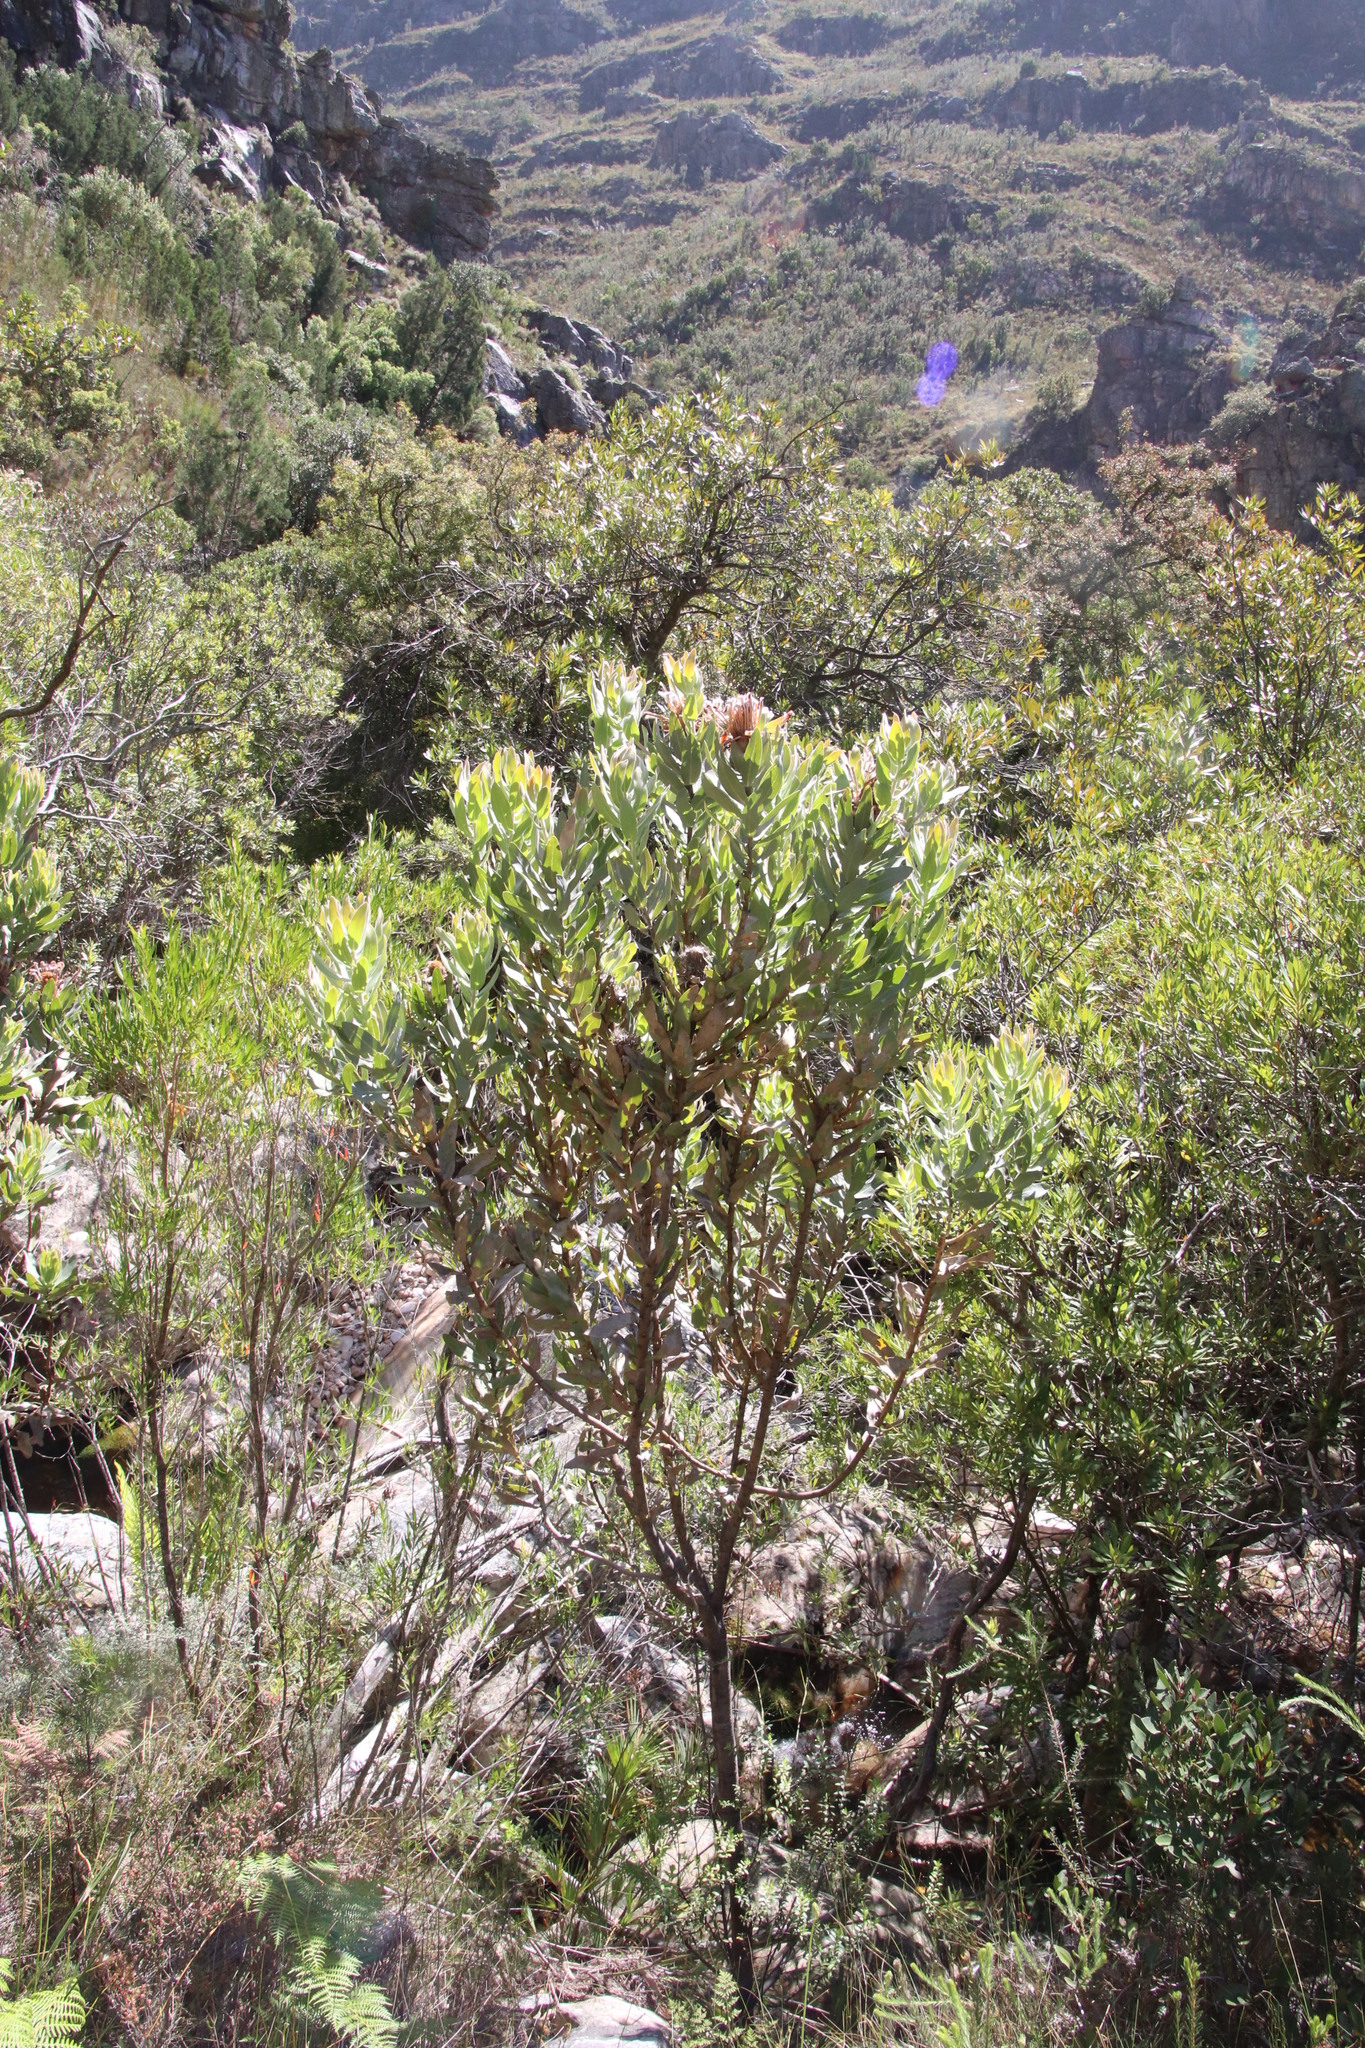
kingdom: Plantae
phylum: Tracheophyta
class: Magnoliopsida
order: Proteales
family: Proteaceae
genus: Protea
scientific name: Protea laurifolia
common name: Grey-leaf sugarbsh
